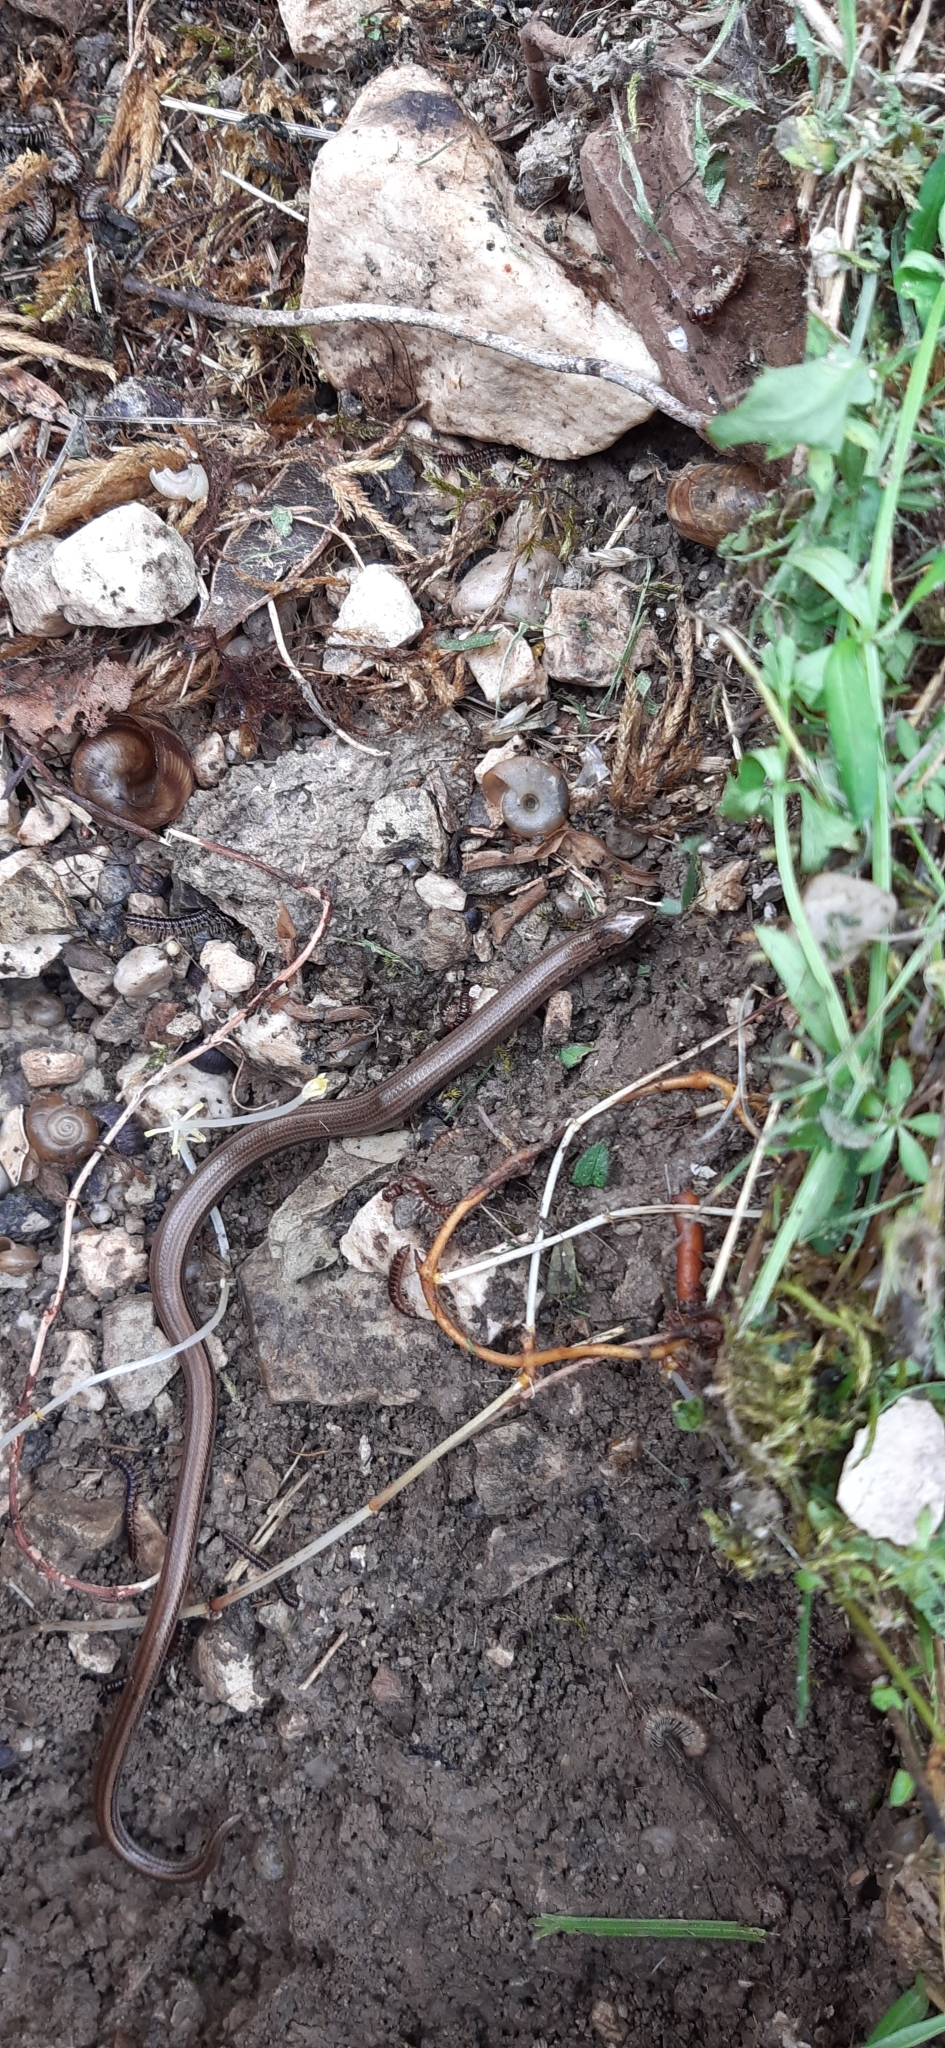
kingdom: Animalia
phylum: Chordata
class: Squamata
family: Anguidae
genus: Anguis
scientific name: Anguis veronensis
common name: Italian slow worm
